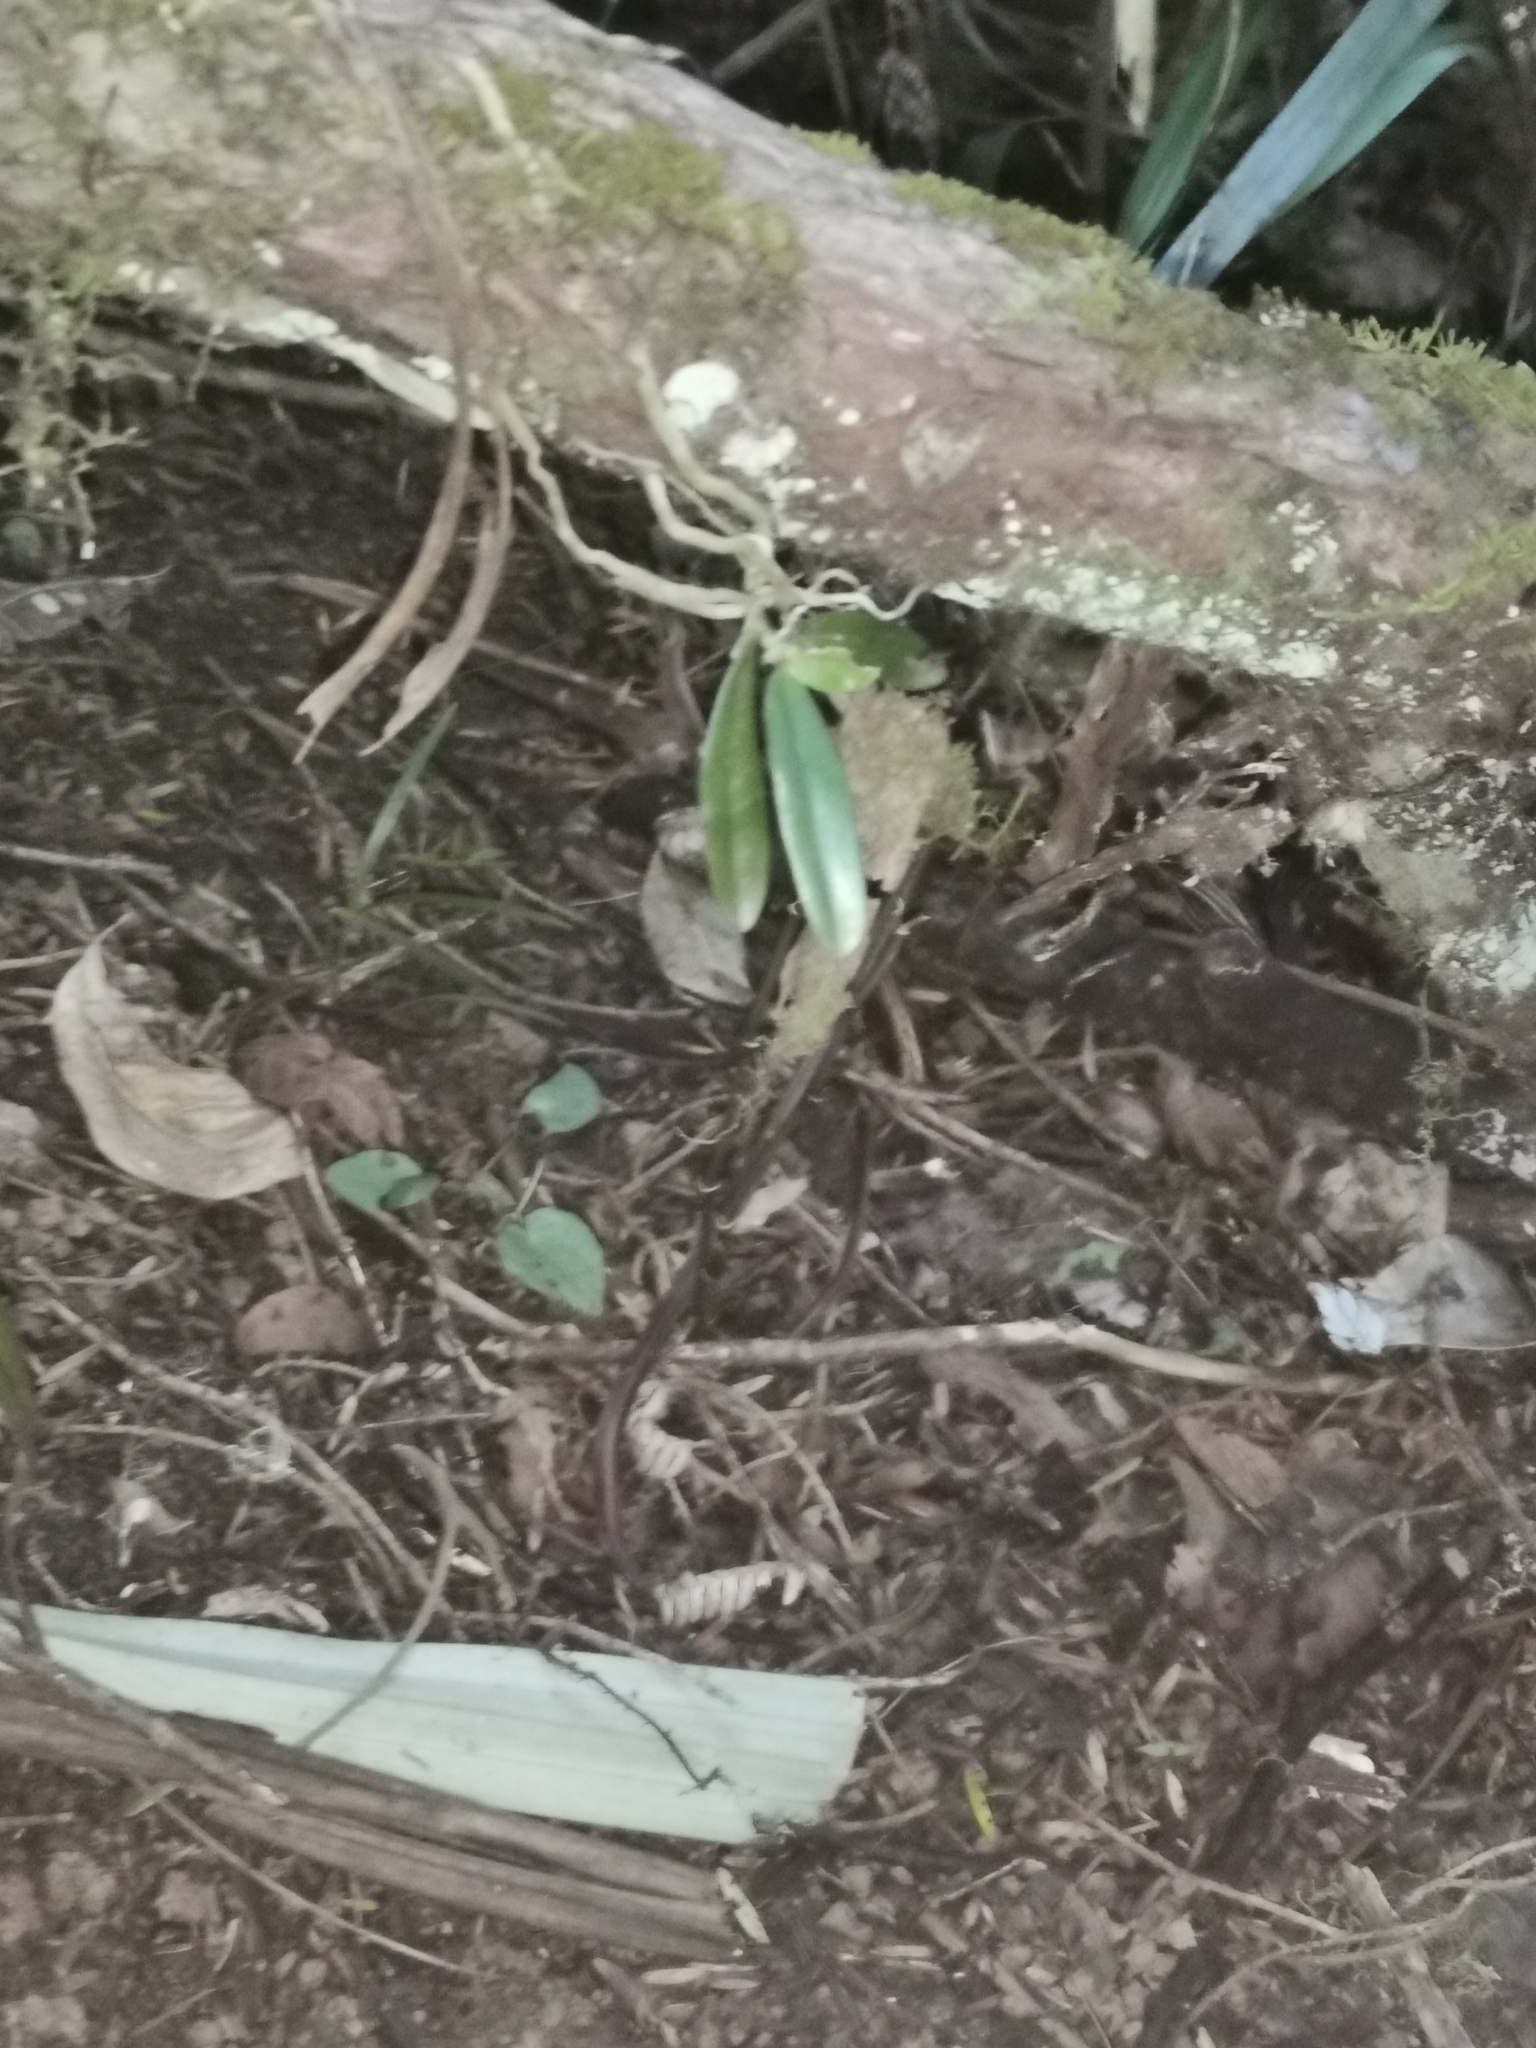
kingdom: Plantae
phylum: Tracheophyta
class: Liliopsida
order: Asparagales
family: Orchidaceae
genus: Drymoanthus
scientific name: Drymoanthus adversus
